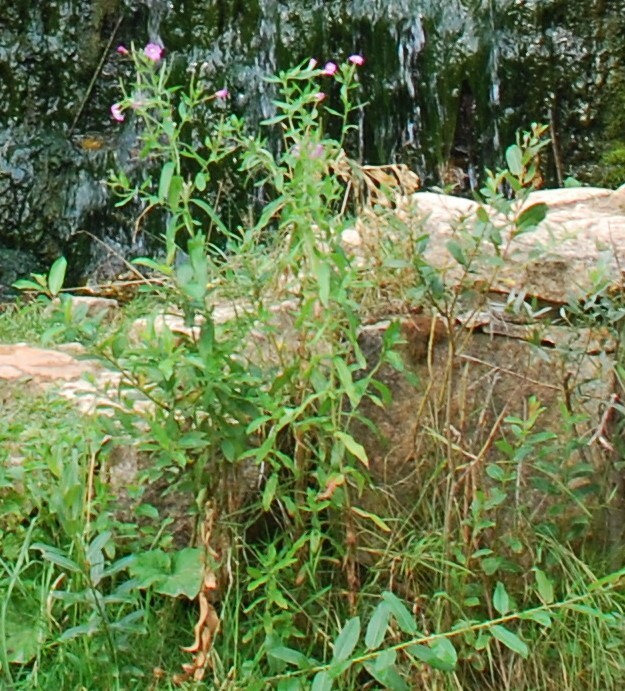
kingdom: Plantae
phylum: Tracheophyta
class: Magnoliopsida
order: Myrtales
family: Onagraceae
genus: Epilobium
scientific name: Epilobium hirsutum
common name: Great willowherb
